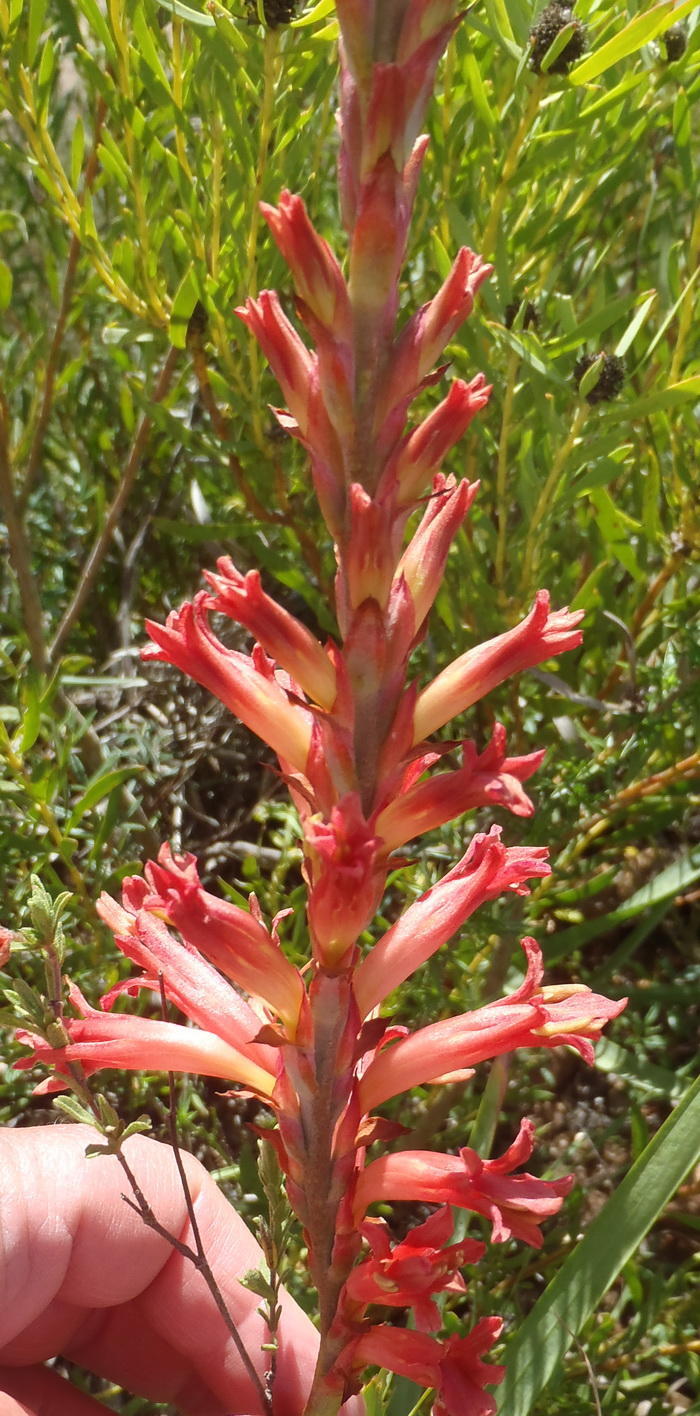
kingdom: Plantae
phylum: Tracheophyta
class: Liliopsida
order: Asparagales
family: Iridaceae
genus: Tritoniopsis
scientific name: Tritoniopsis antholyza
